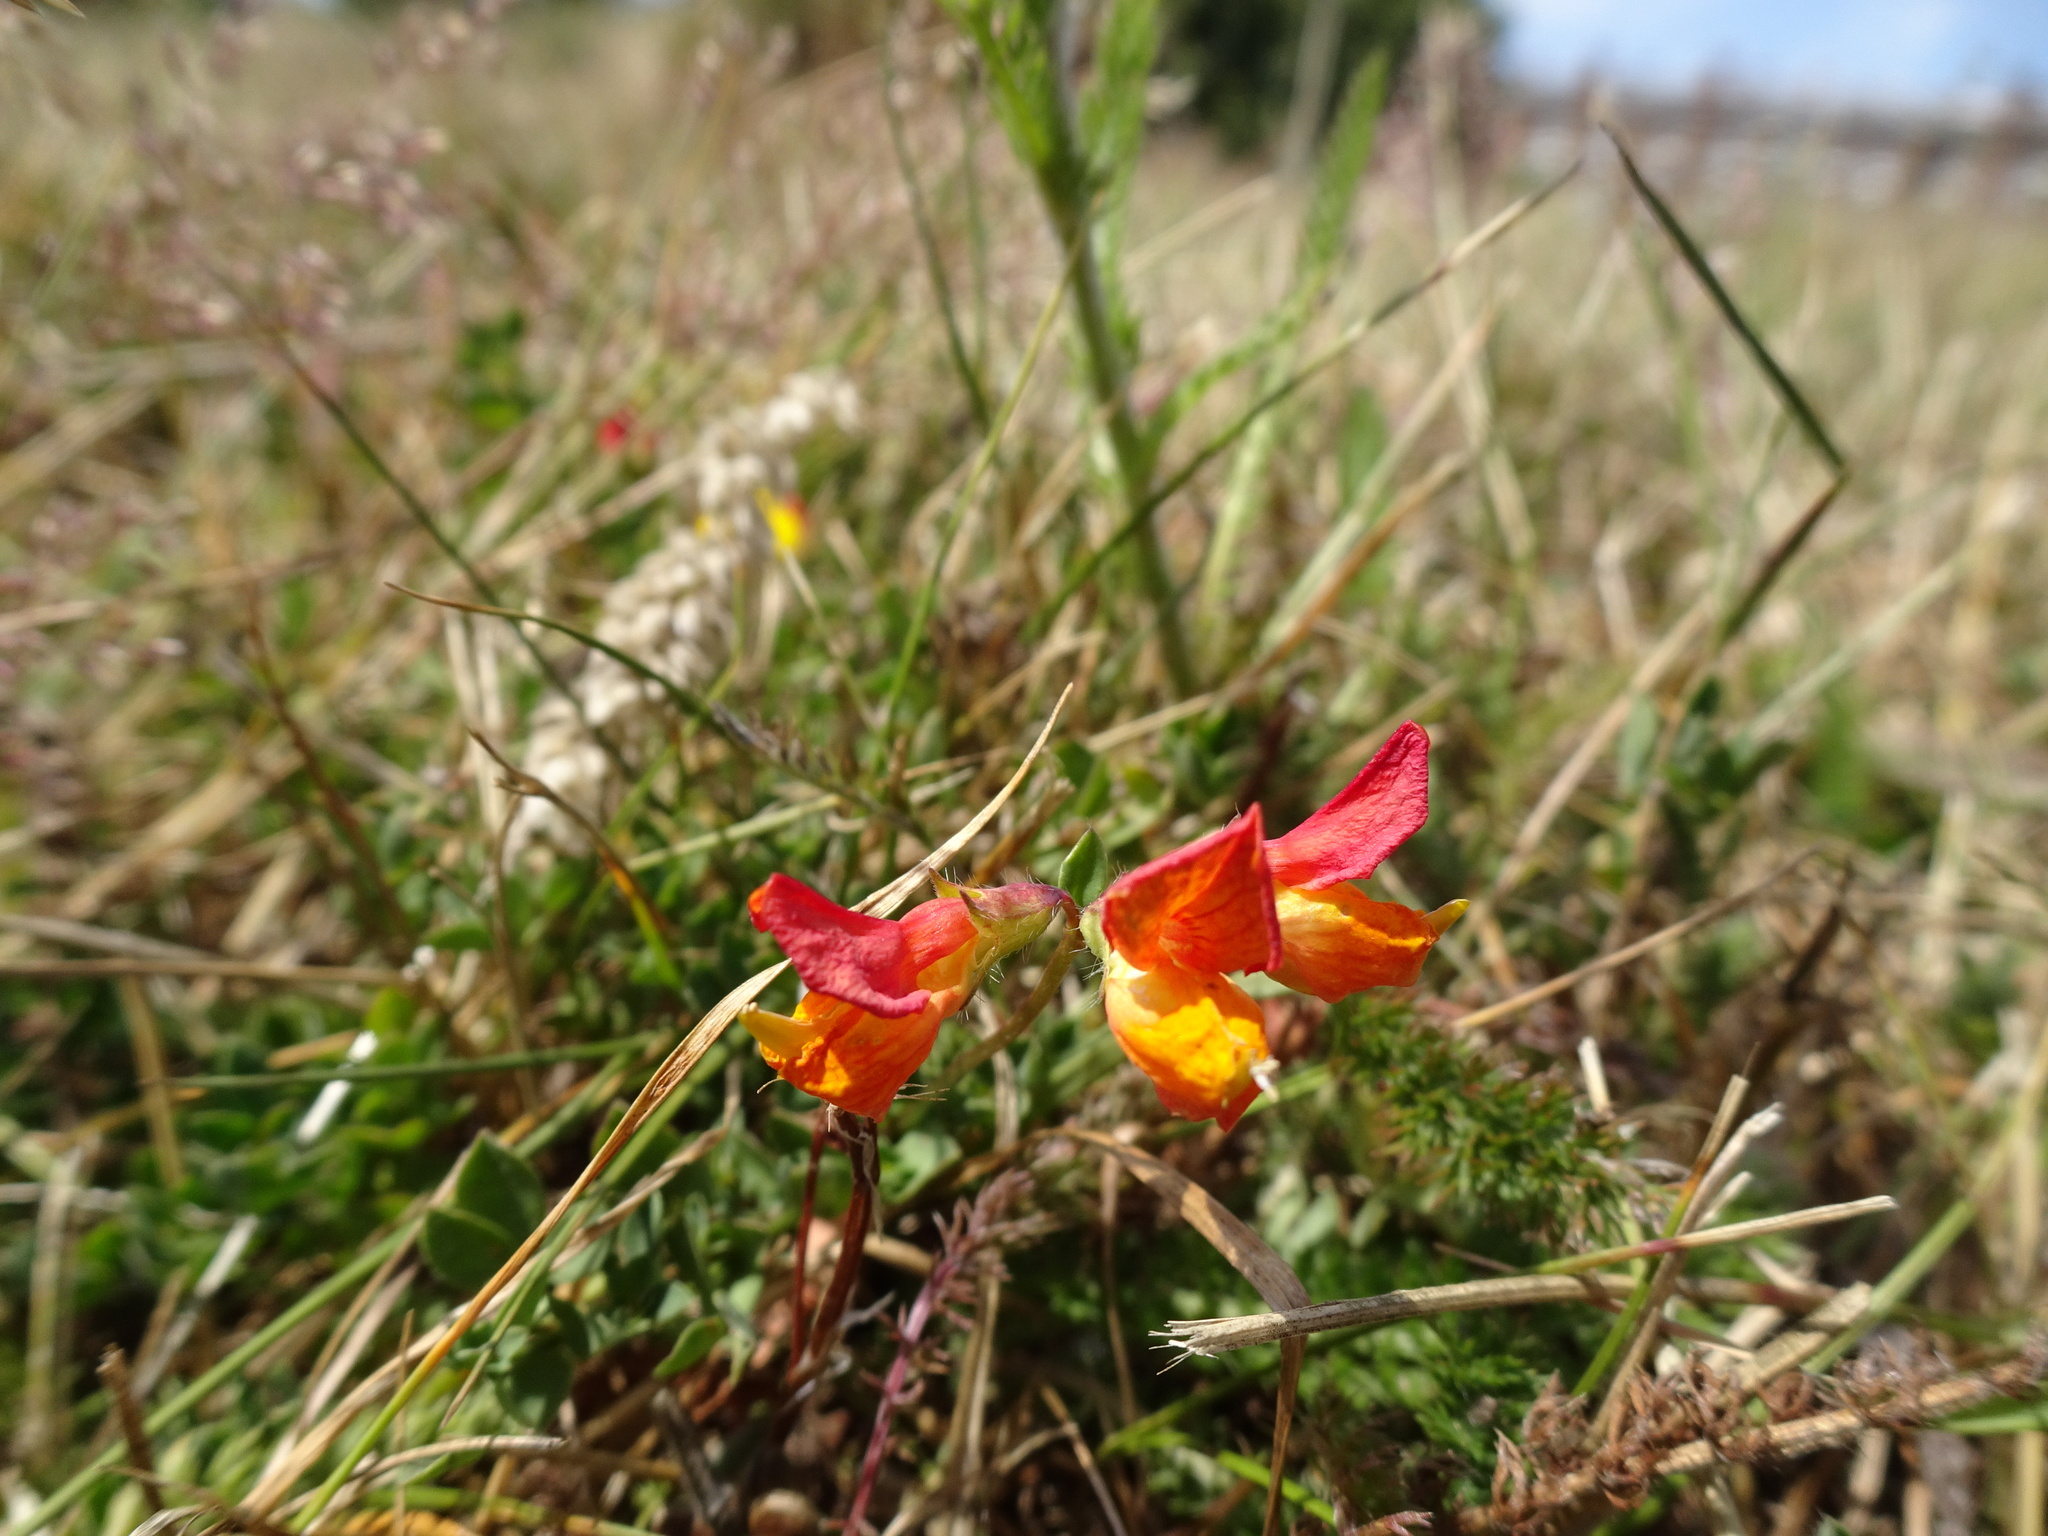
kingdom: Plantae
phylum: Tracheophyta
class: Magnoliopsida
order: Fabales
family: Fabaceae
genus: Lotus
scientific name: Lotus corniculatus
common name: Common bird's-foot-trefoil
